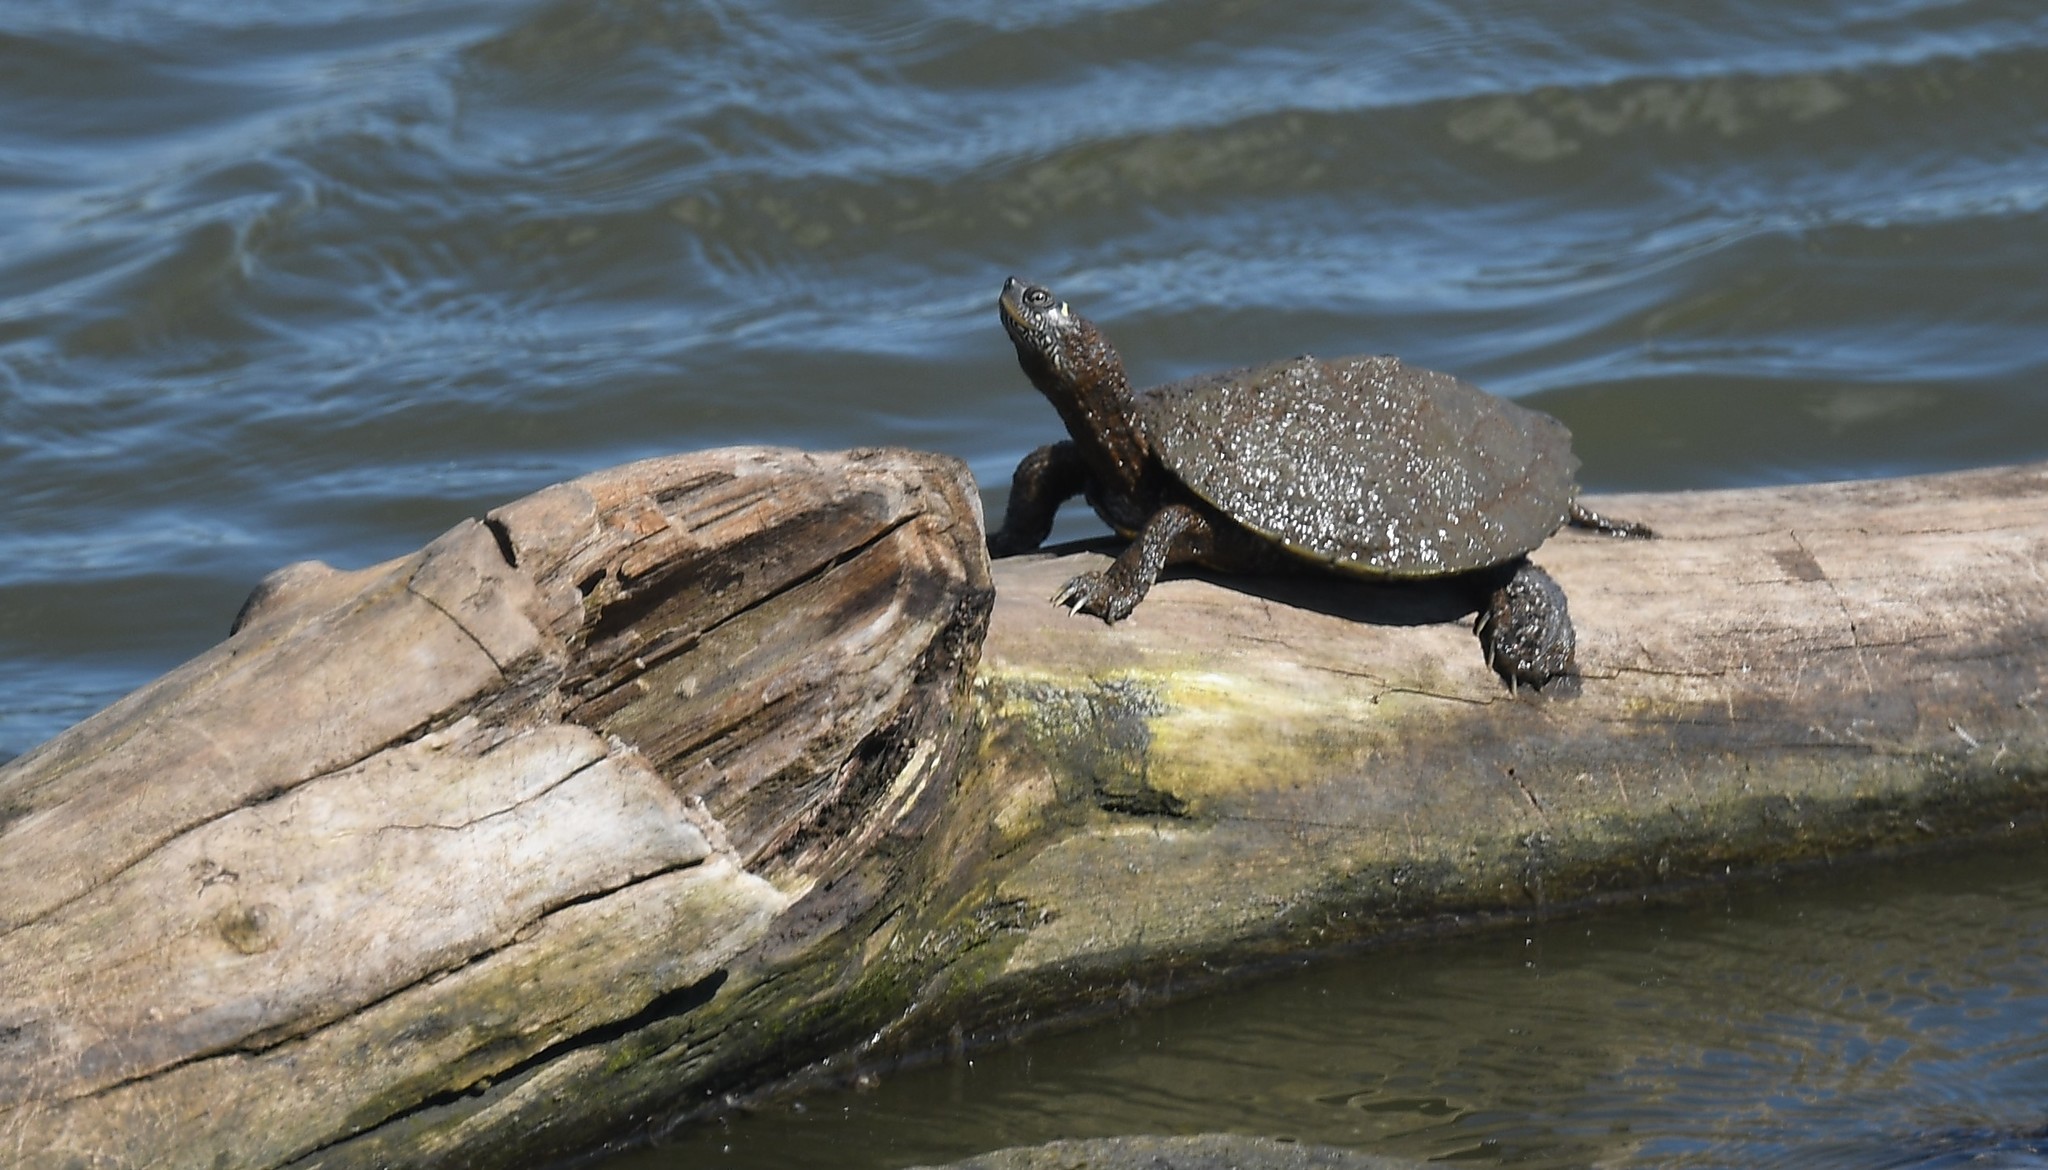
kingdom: Animalia
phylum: Chordata
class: Testudines
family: Emydidae
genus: Graptemys
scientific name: Graptemys pseudogeographica
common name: False map turtle
